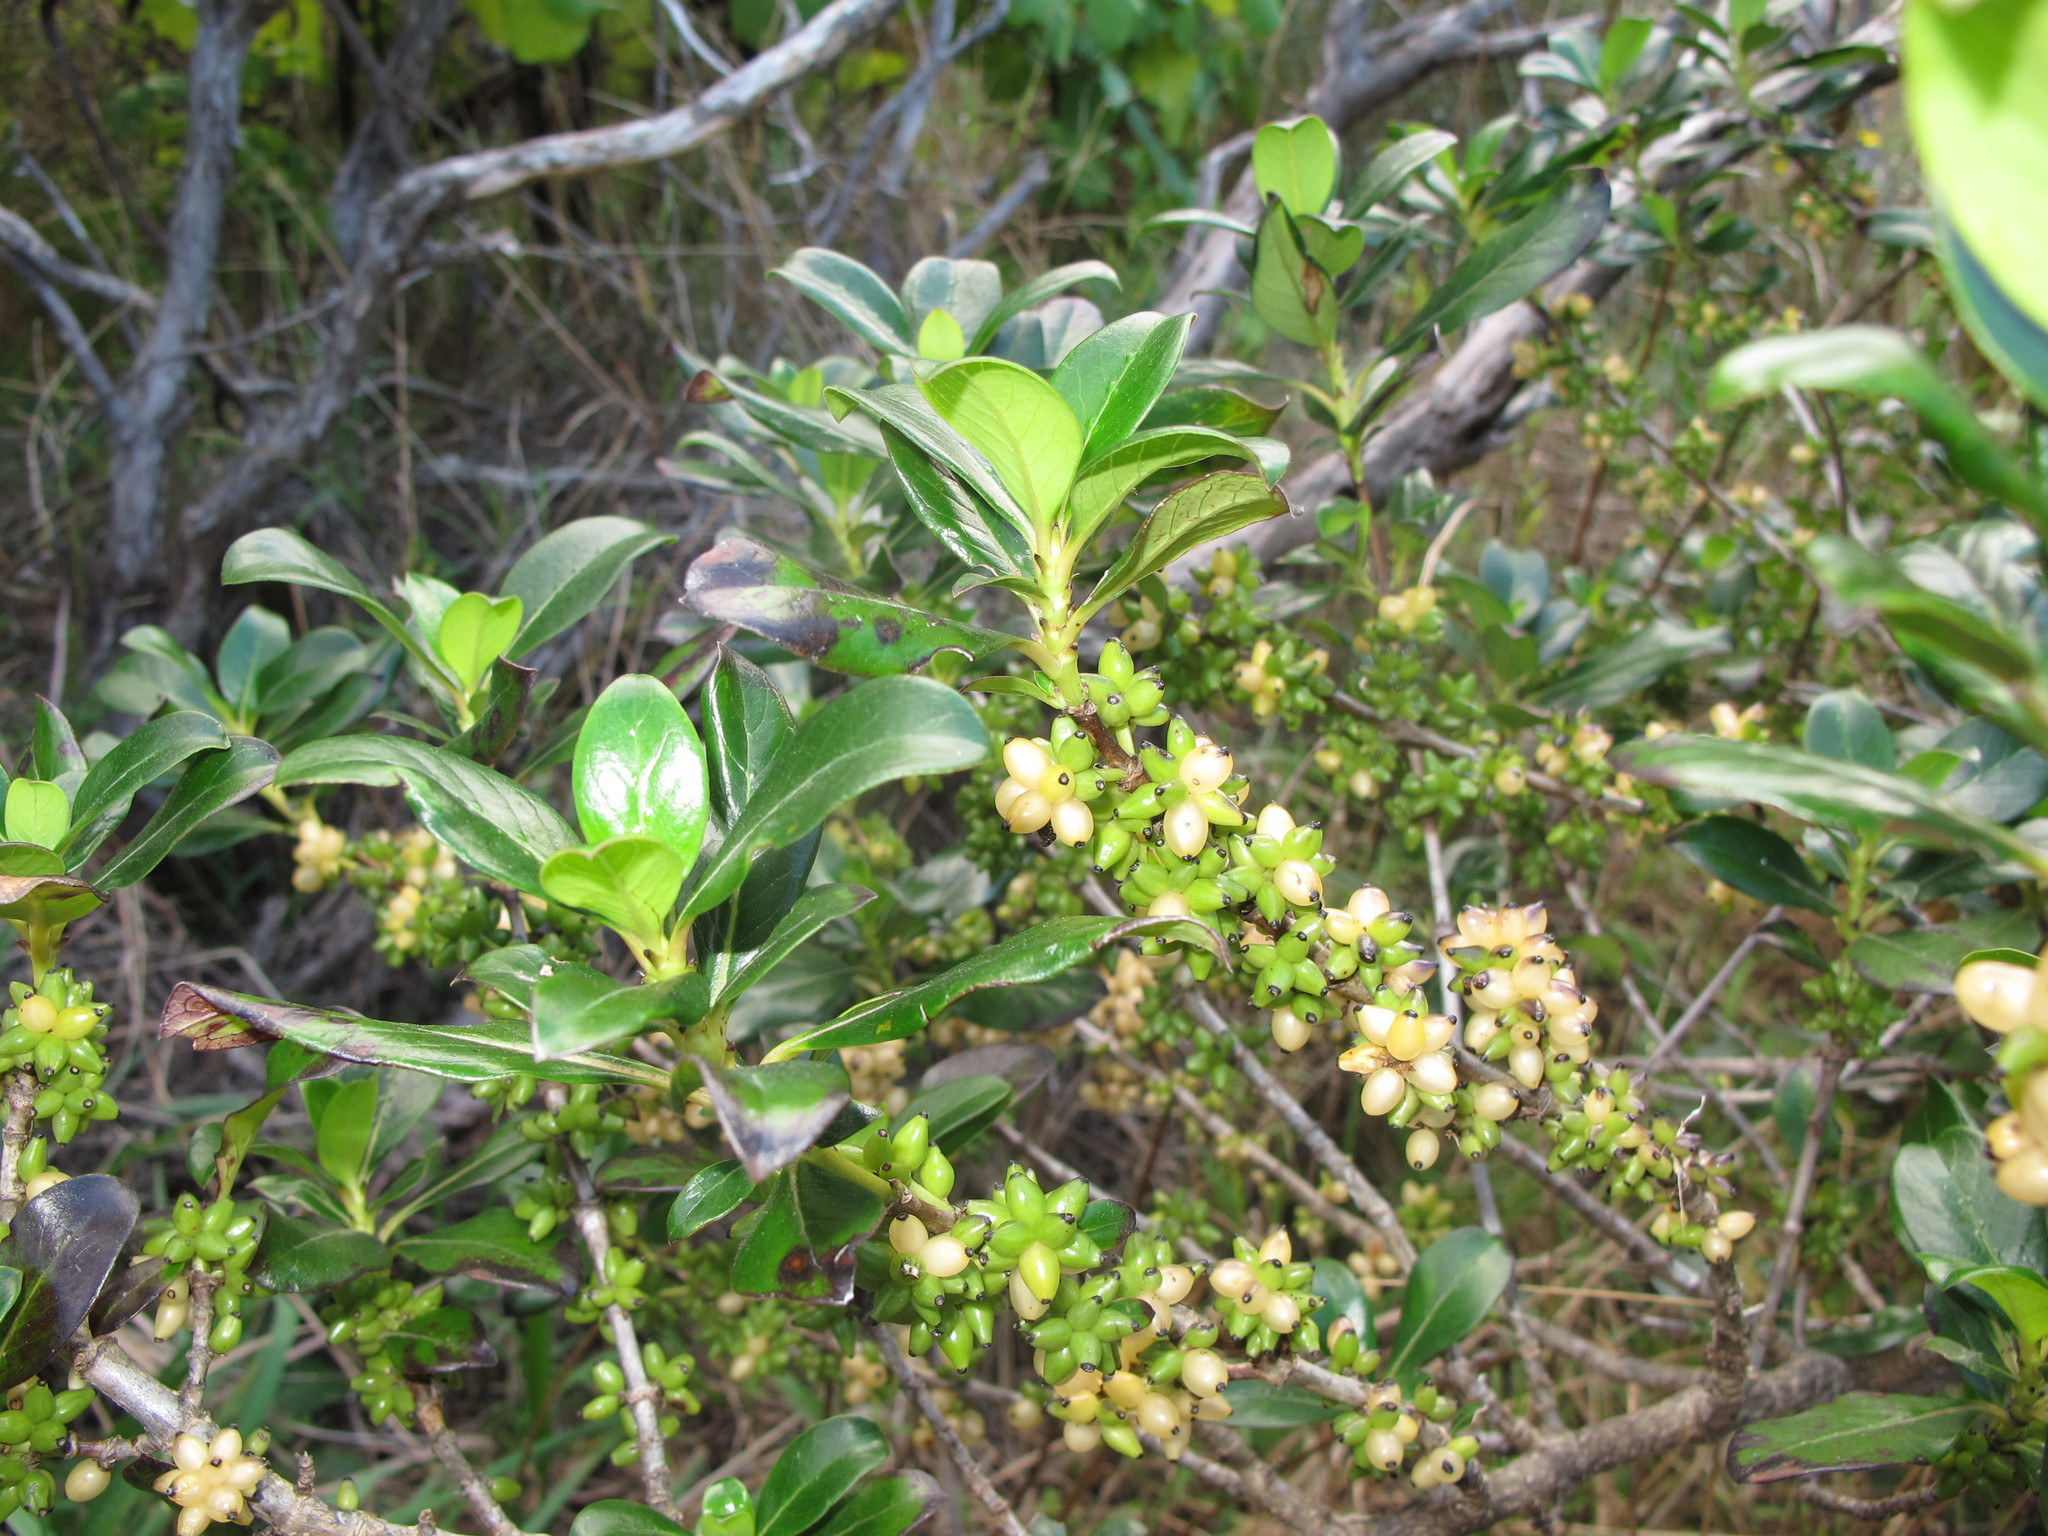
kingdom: Plantae
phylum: Tracheophyta
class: Magnoliopsida
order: Gentianales
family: Rubiaceae
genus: Coprosma
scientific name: Coprosma cunninghamii
